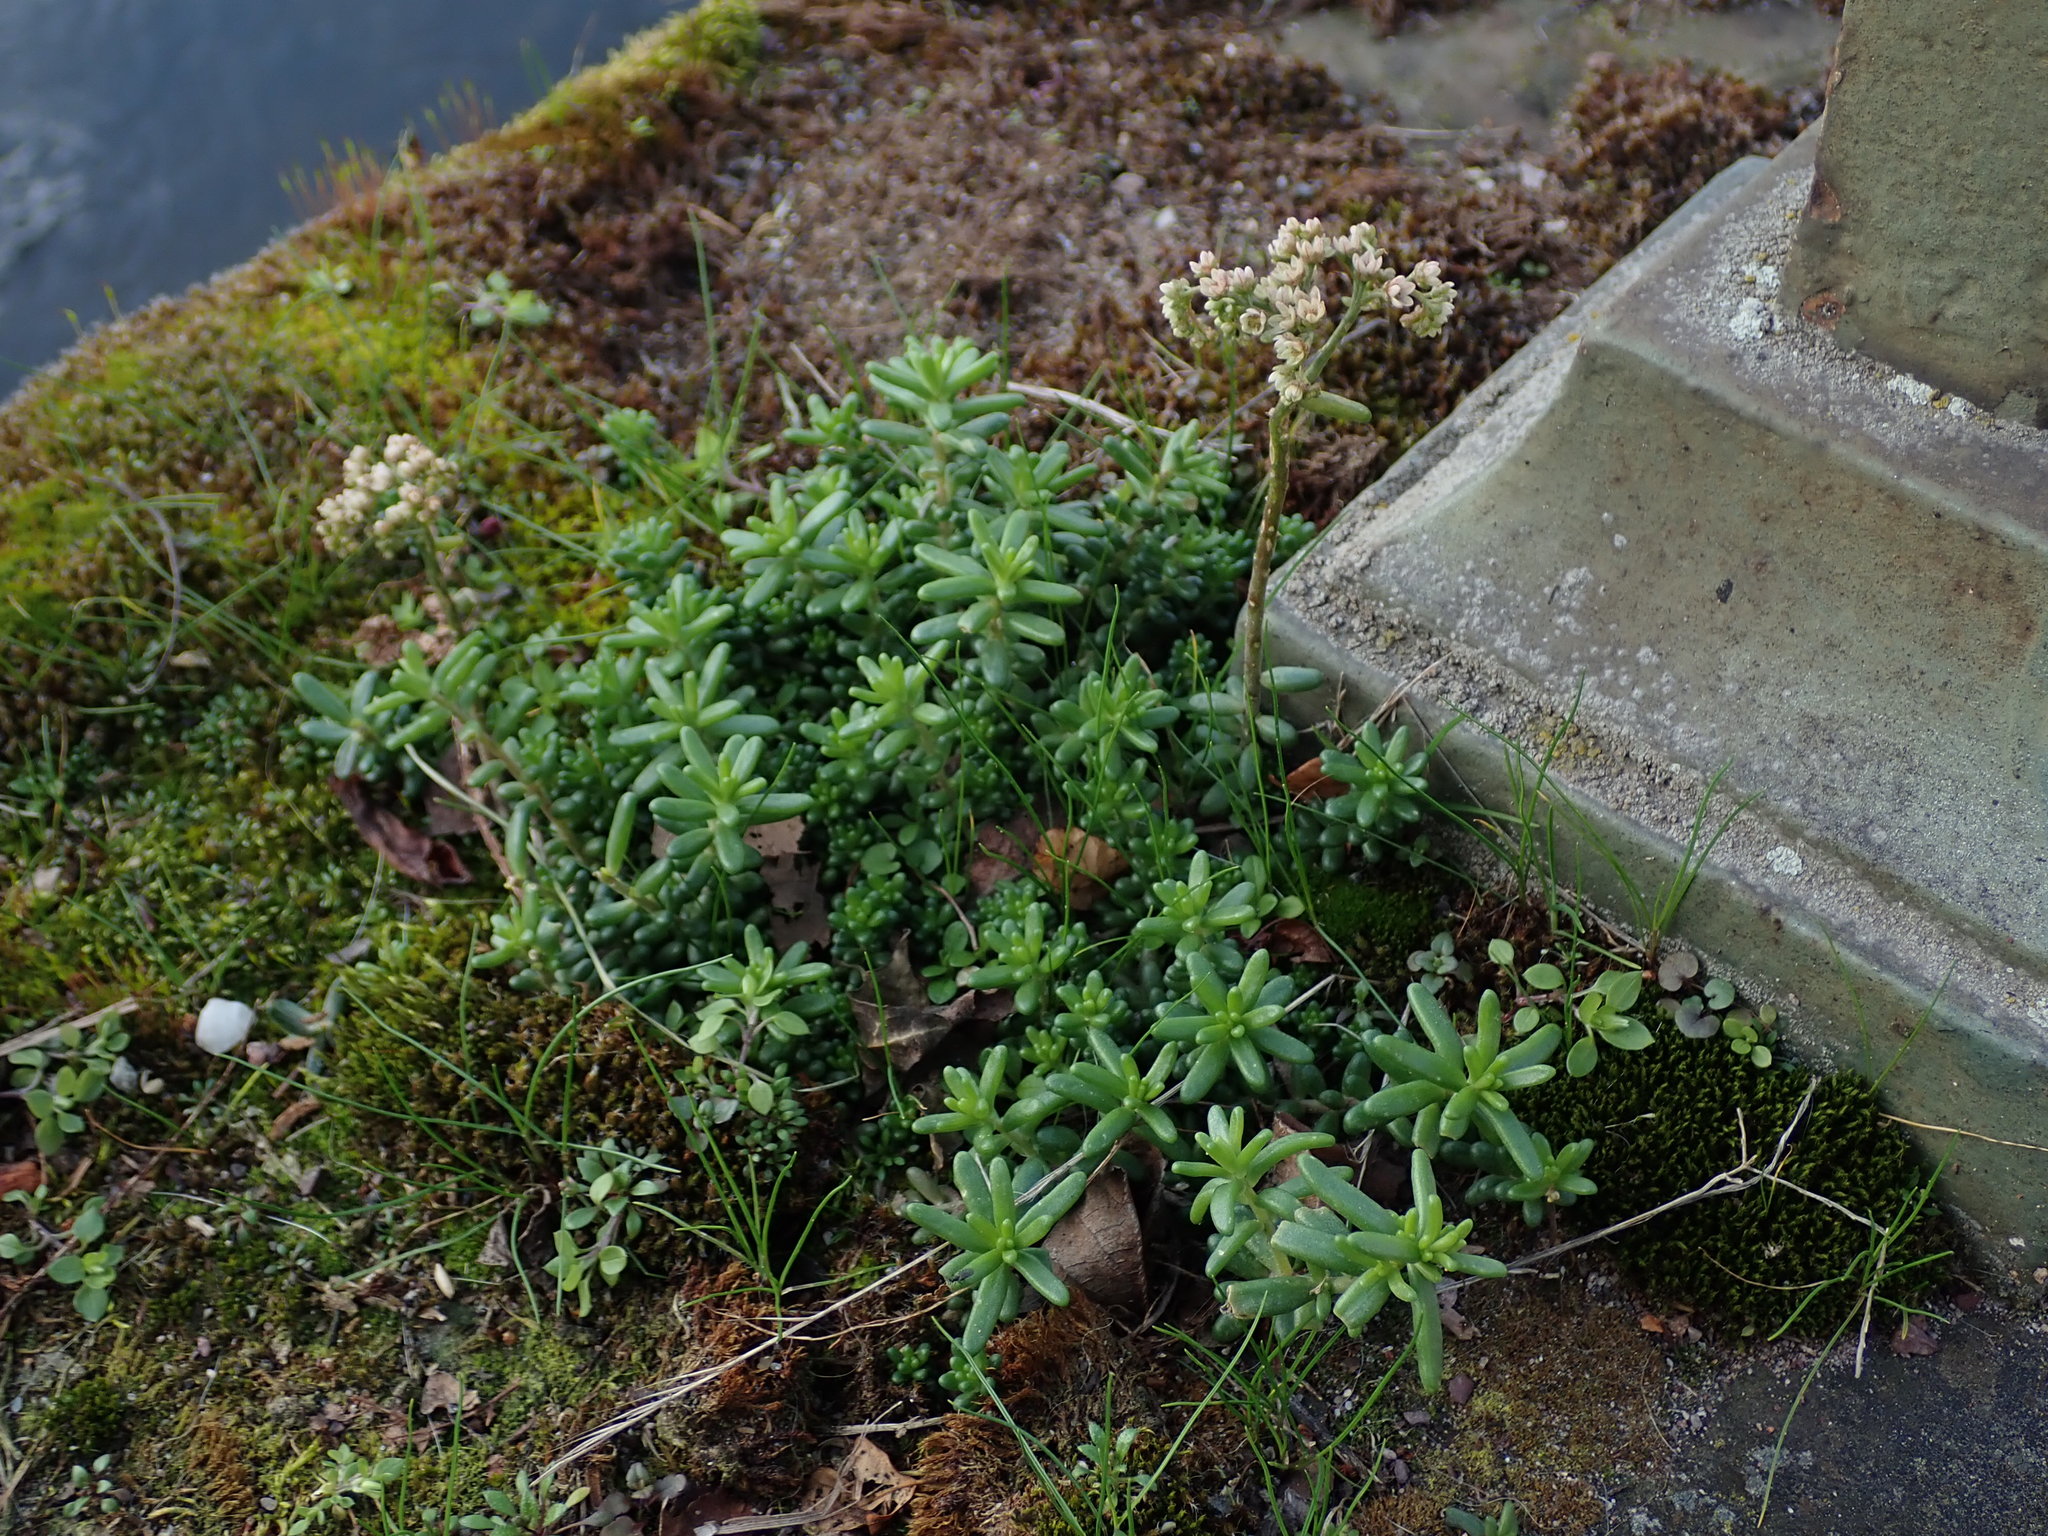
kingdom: Plantae
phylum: Tracheophyta
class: Magnoliopsida
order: Saxifragales
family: Crassulaceae
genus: Sedum
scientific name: Sedum album
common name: White stonecrop
